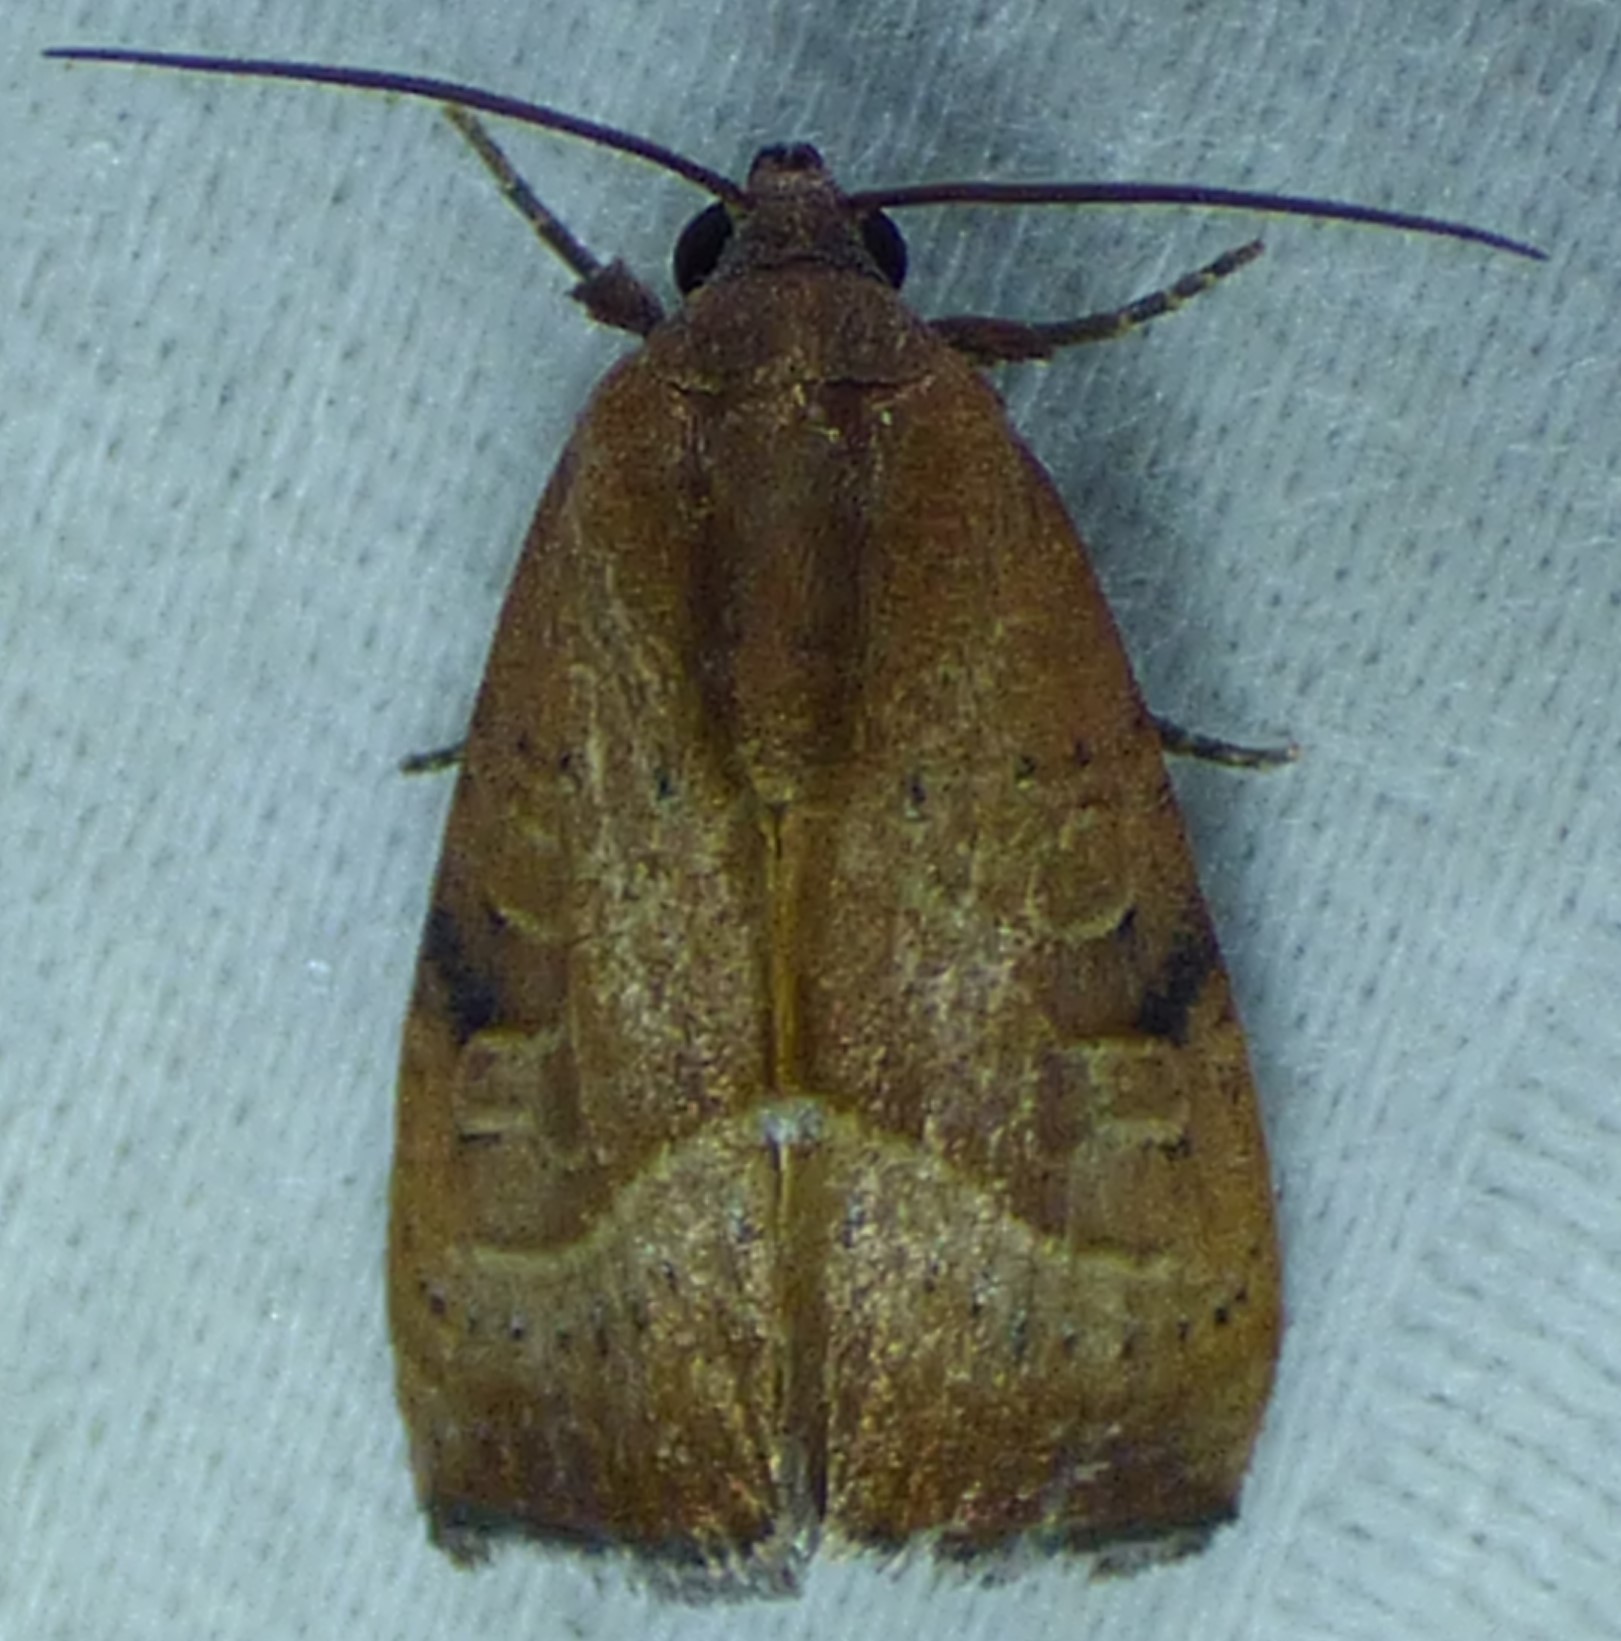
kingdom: Animalia
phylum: Arthropoda
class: Insecta
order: Lepidoptera
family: Noctuidae
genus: Galgula
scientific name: Galgula partita
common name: Wedgeling
